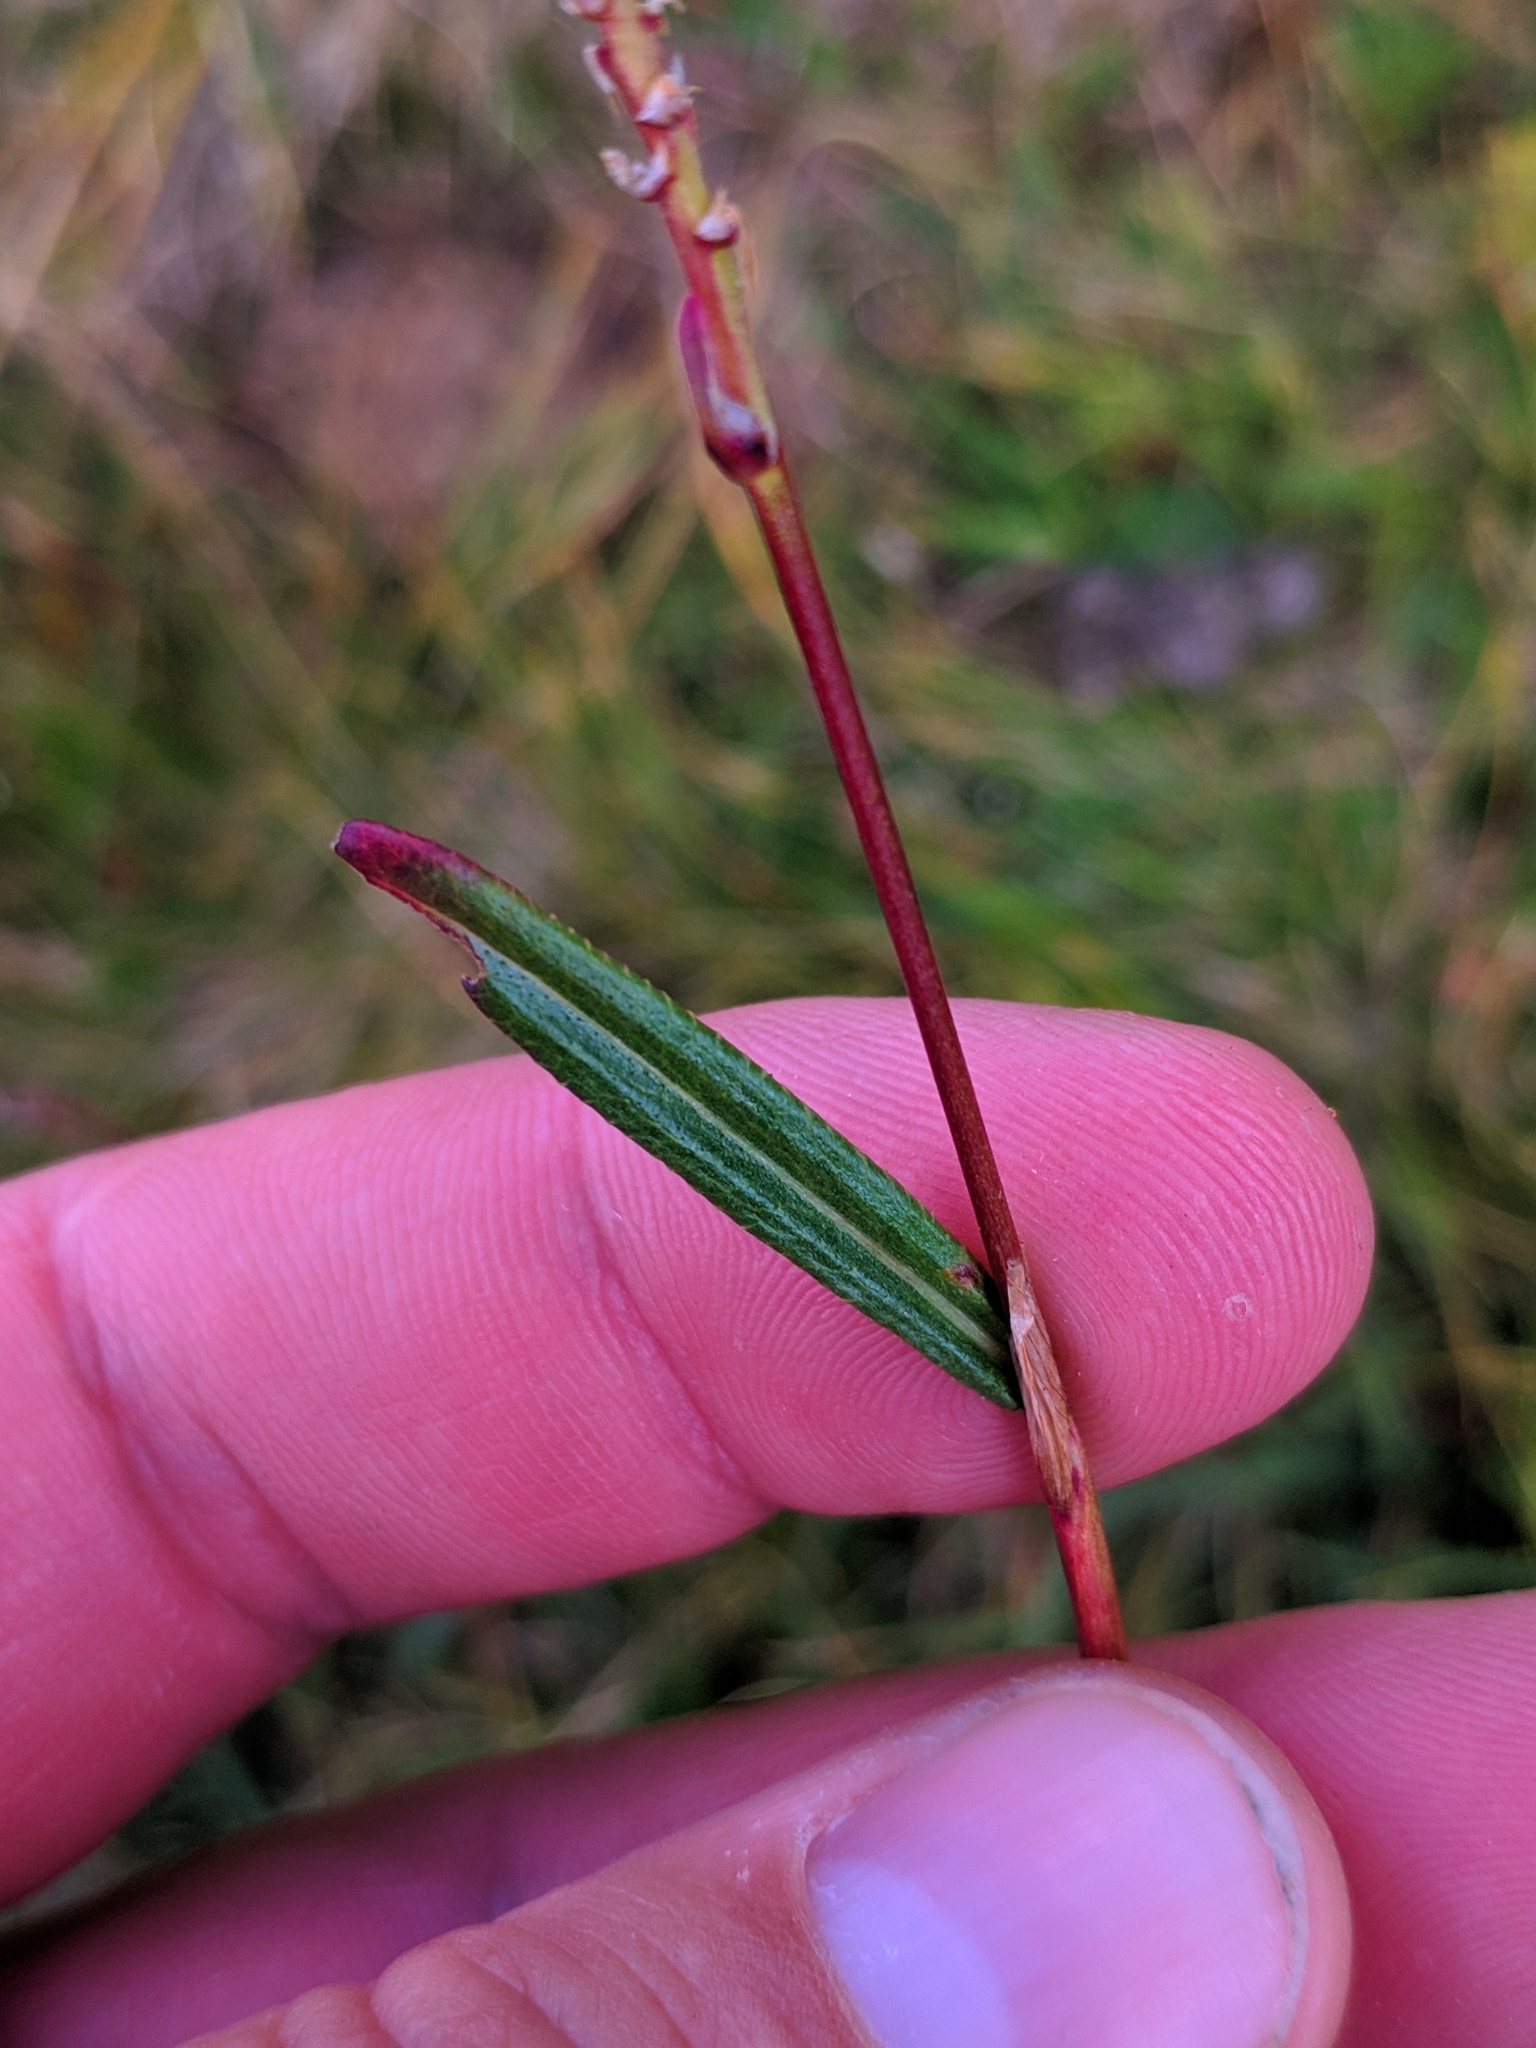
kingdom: Plantae
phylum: Tracheophyta
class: Magnoliopsida
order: Caryophyllales
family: Polygonaceae
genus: Bistorta
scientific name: Bistorta vivipara
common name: Alpine bistort
